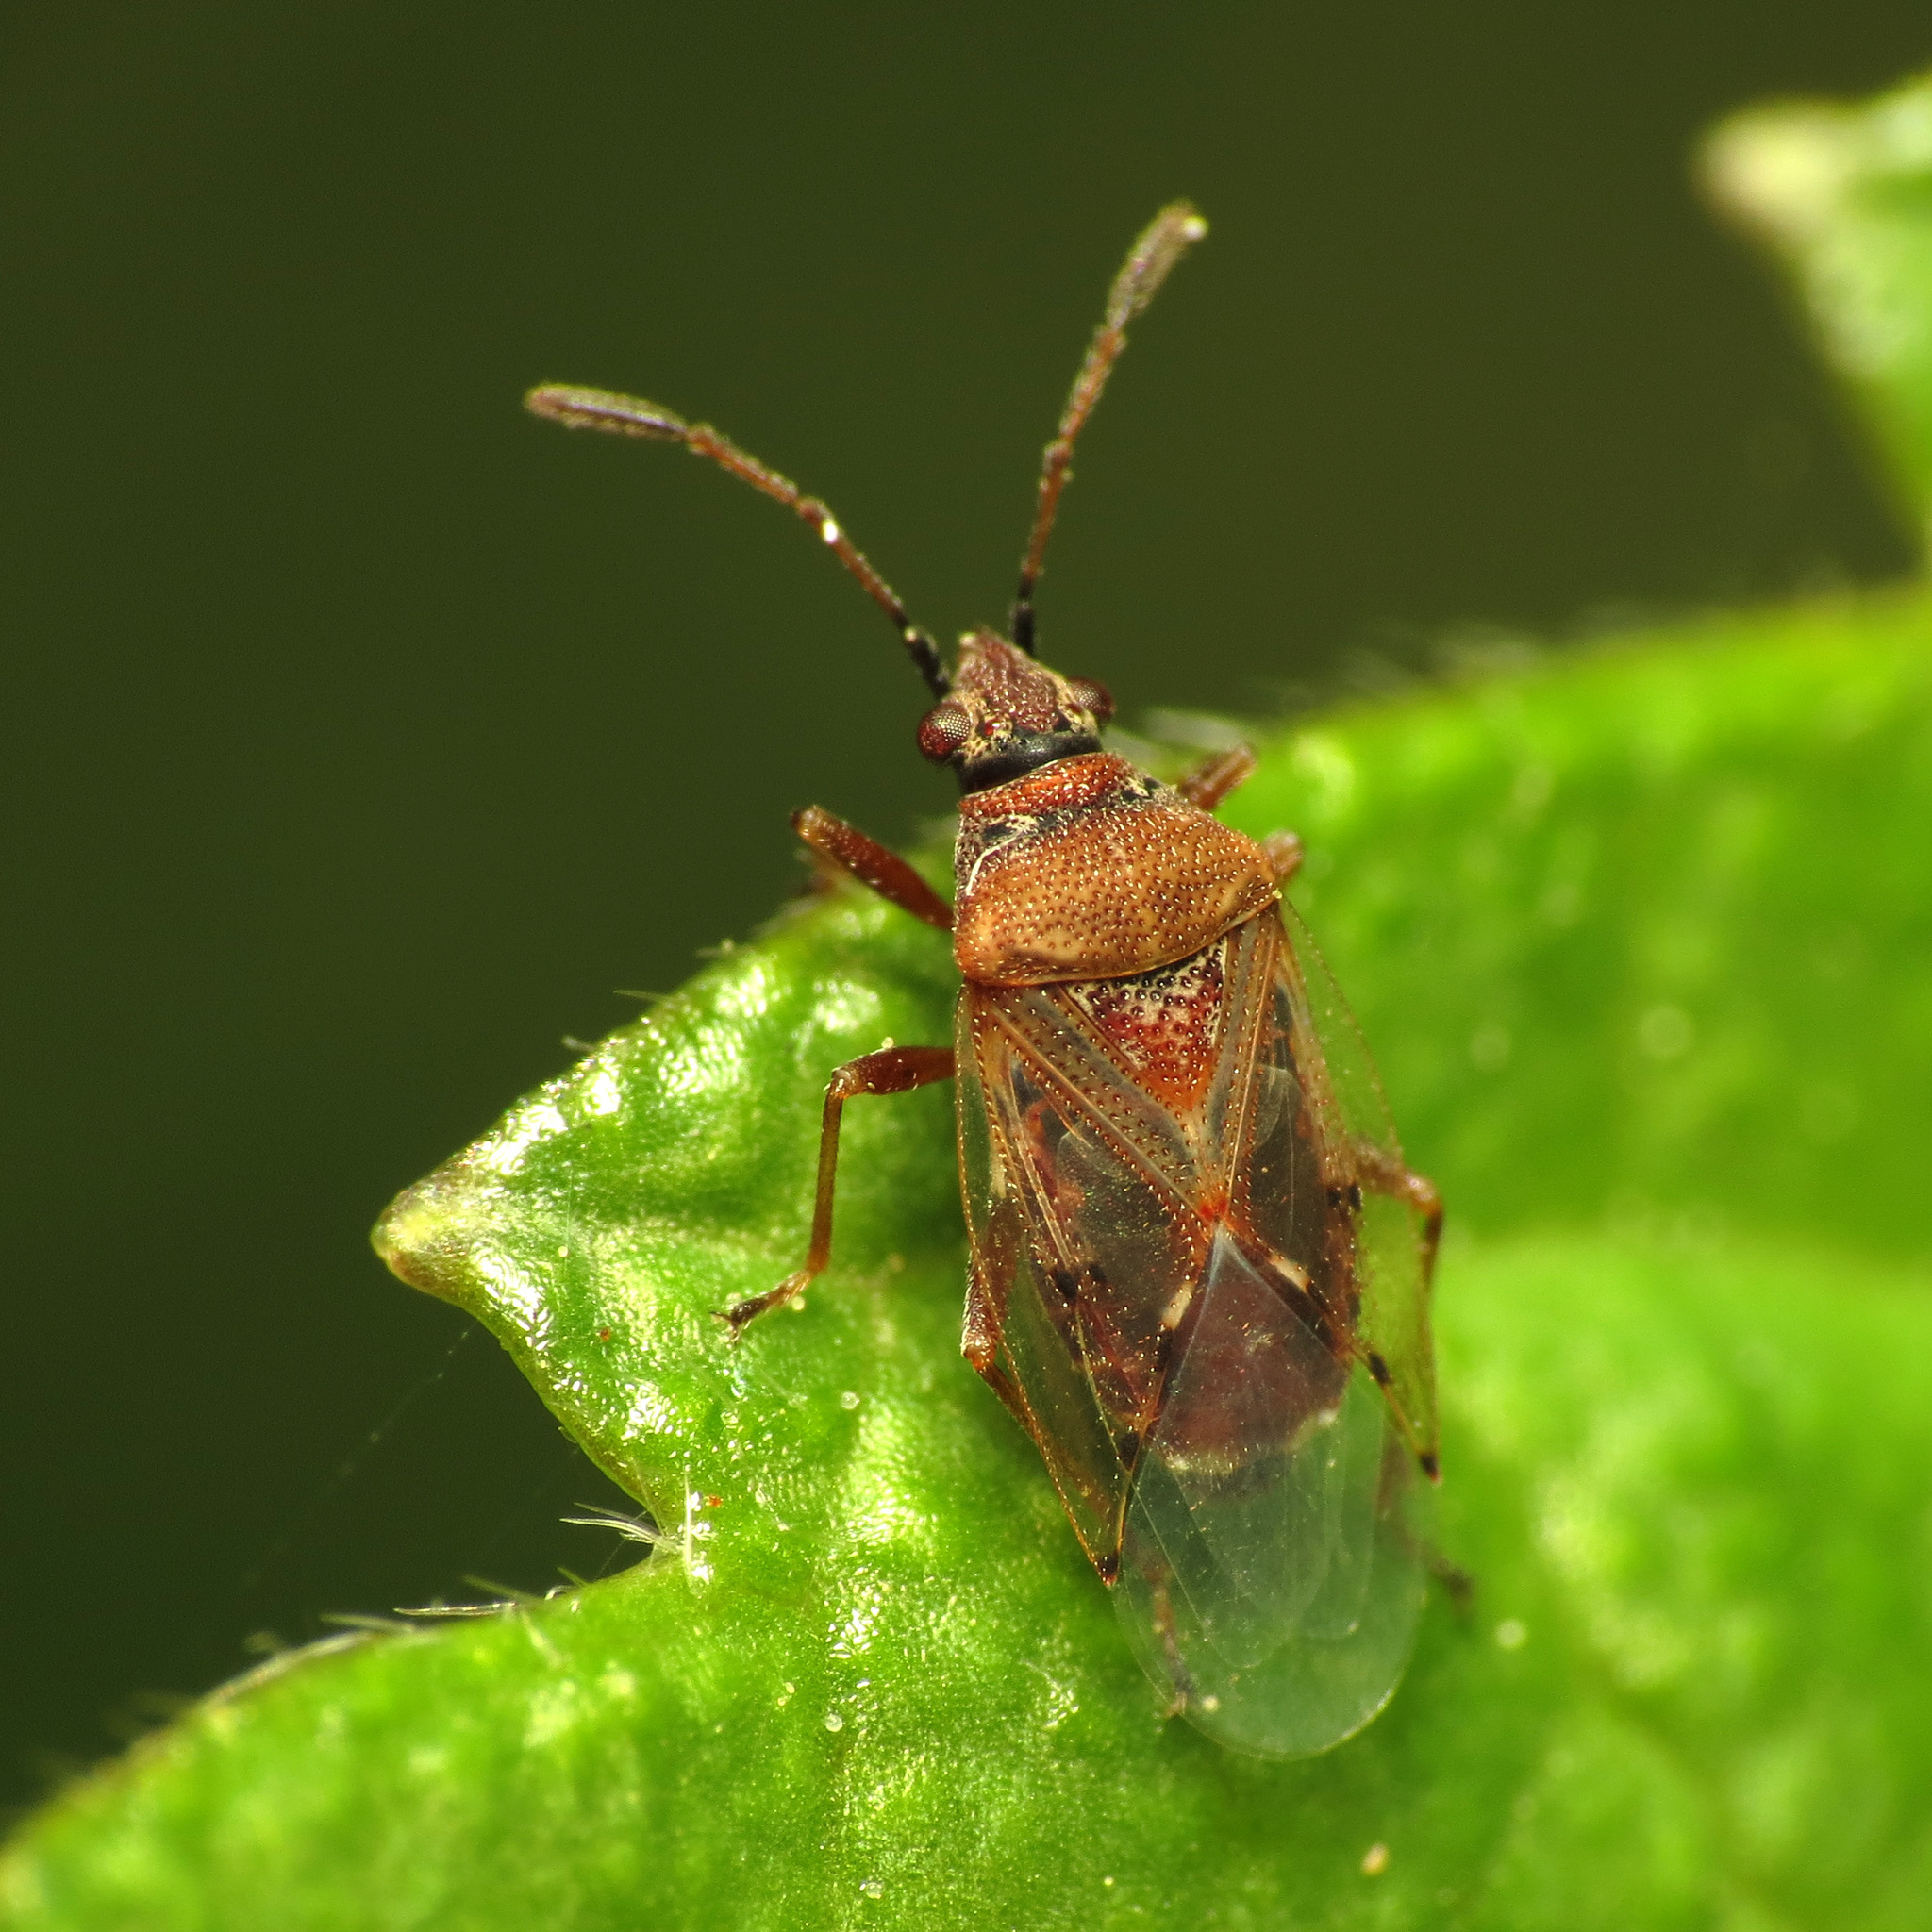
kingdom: Animalia
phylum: Arthropoda
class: Insecta
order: Hemiptera
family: Lygaeidae
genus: Kleidocerys
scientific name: Kleidocerys resedae
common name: Birch catkin bug
